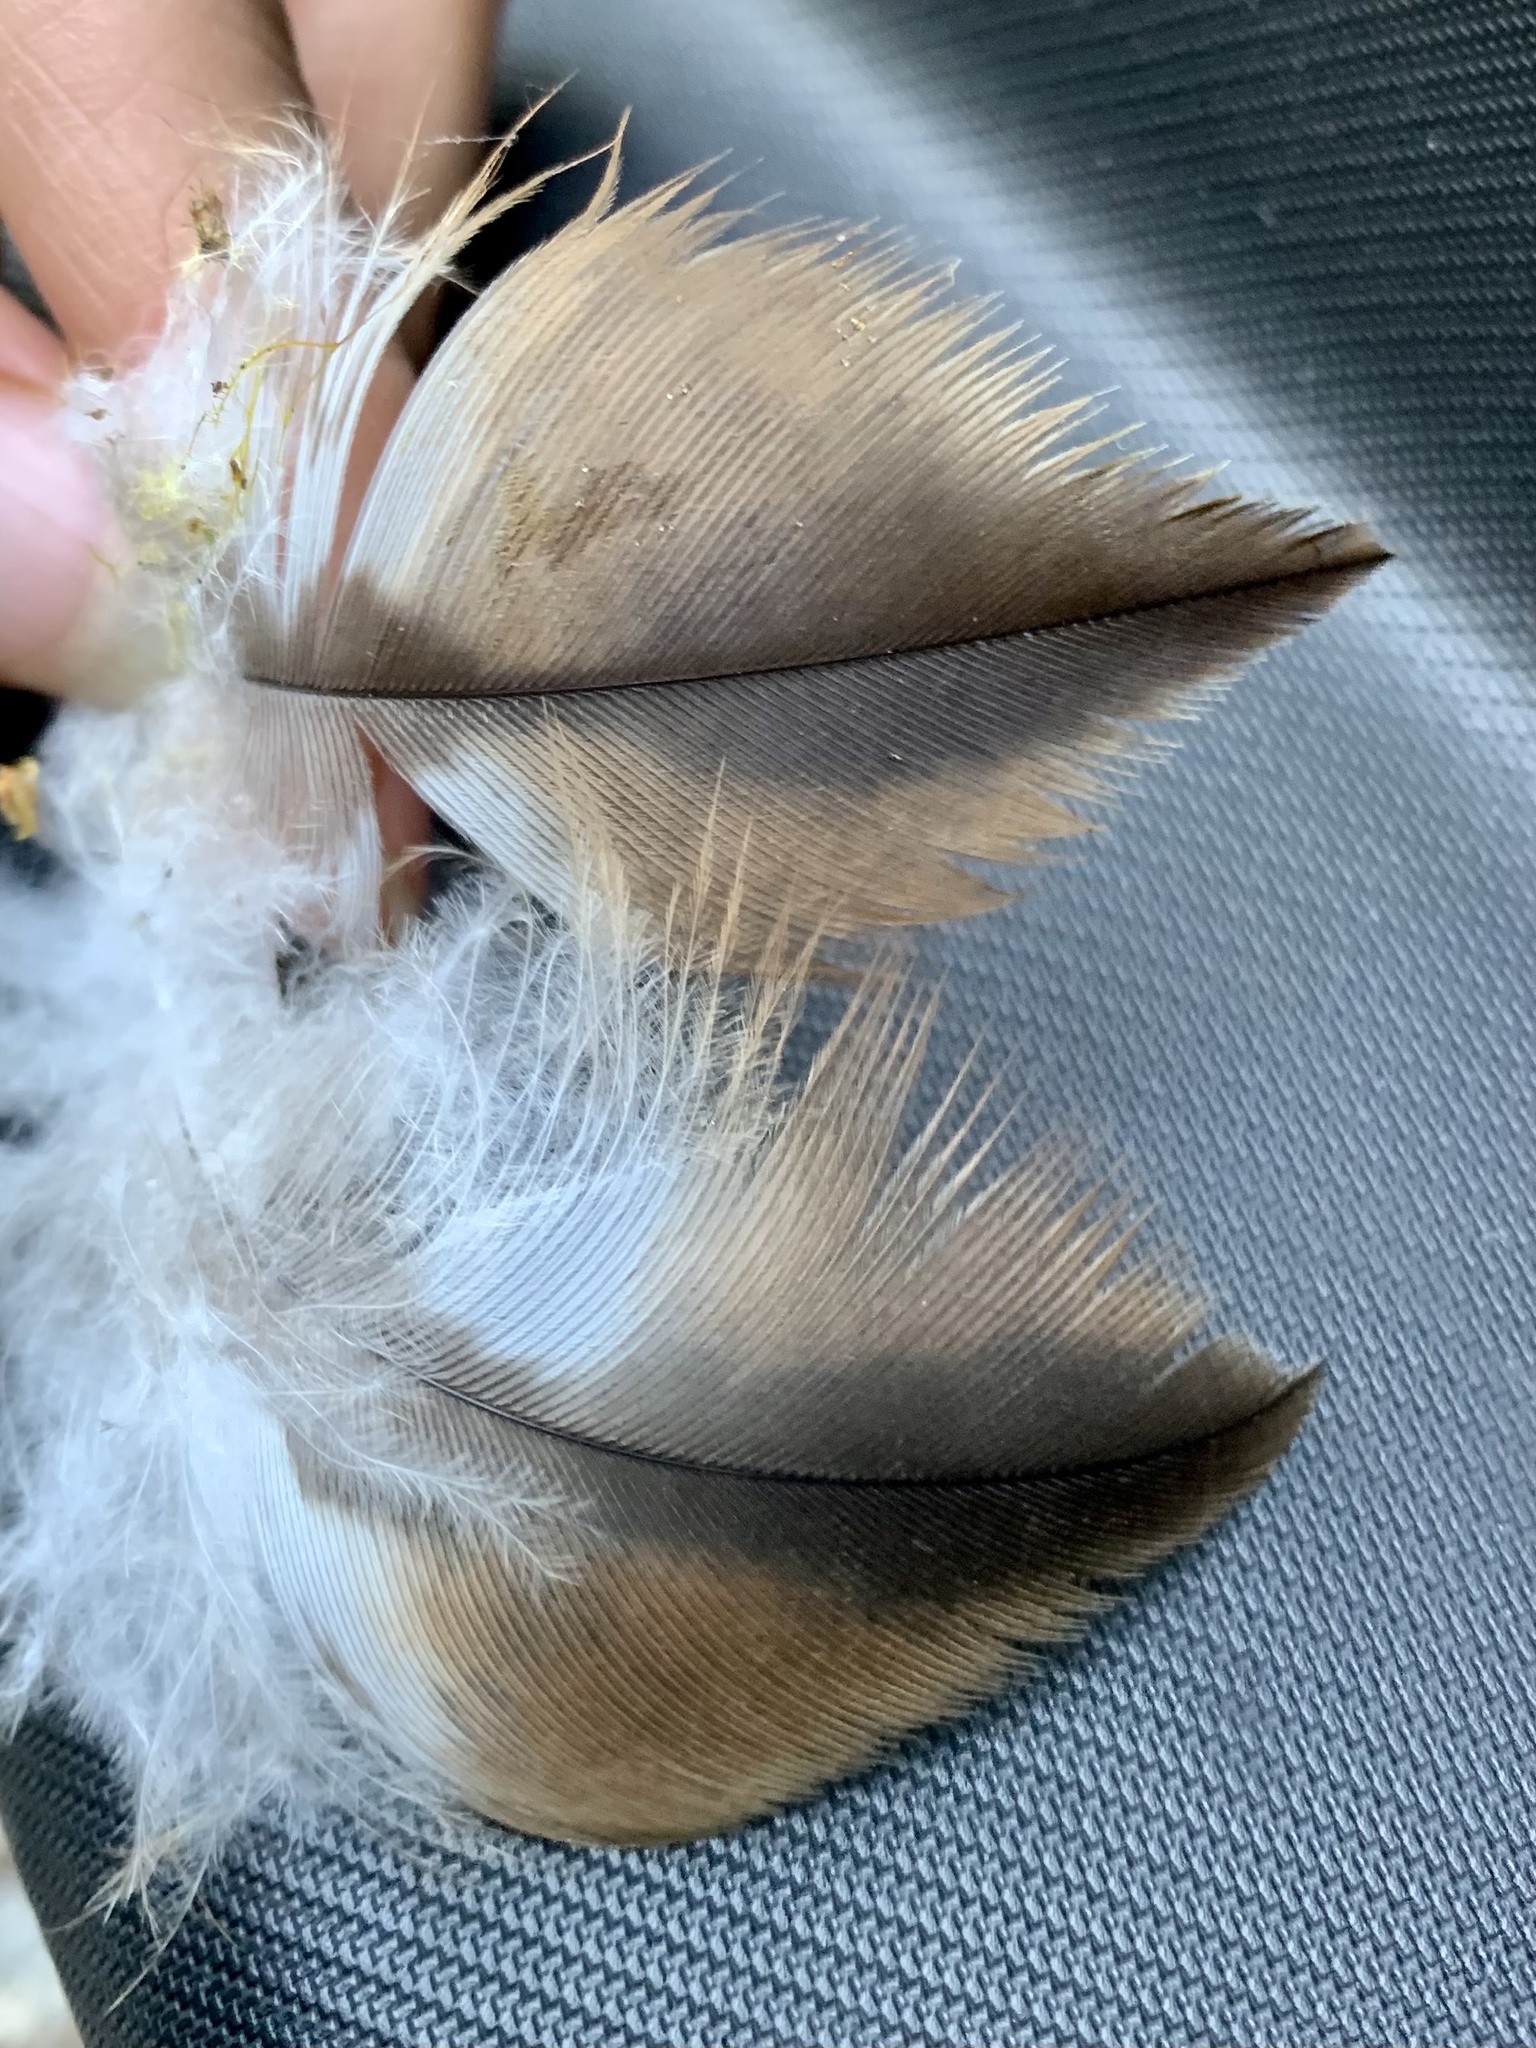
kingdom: Animalia
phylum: Chordata
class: Aves
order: Accipitriformes
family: Accipitridae
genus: Milvus
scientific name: Milvus milvus
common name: Red kite
